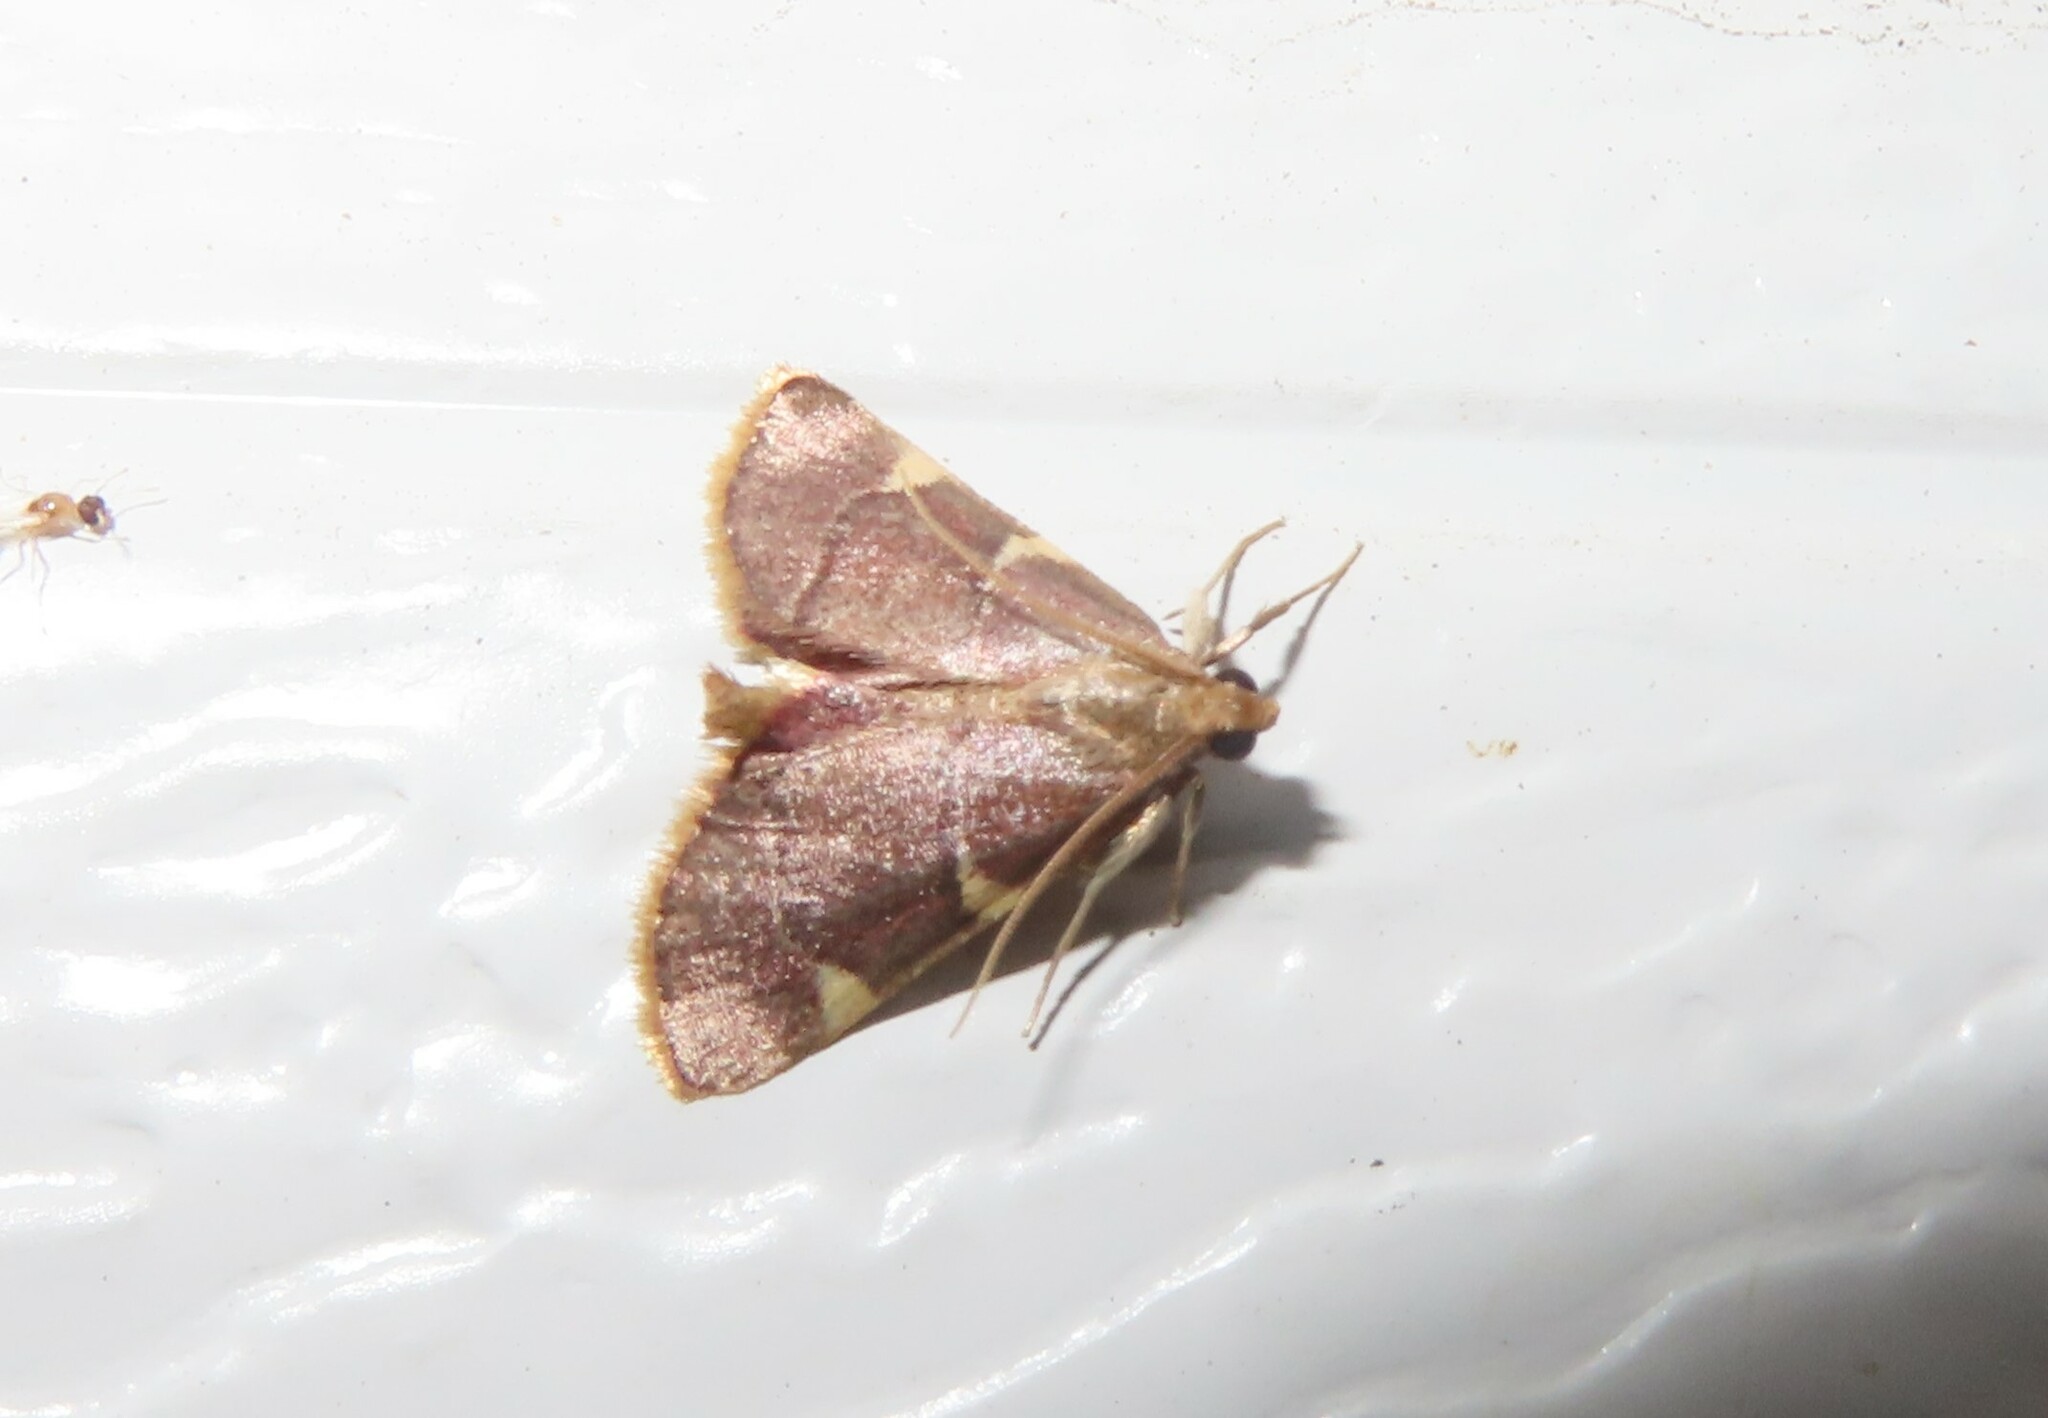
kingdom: Animalia
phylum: Arthropoda
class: Insecta
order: Lepidoptera
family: Pyralidae
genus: Hypsopygia
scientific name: Hypsopygia olinalis
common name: Yellow-fringed dolichomia moth
